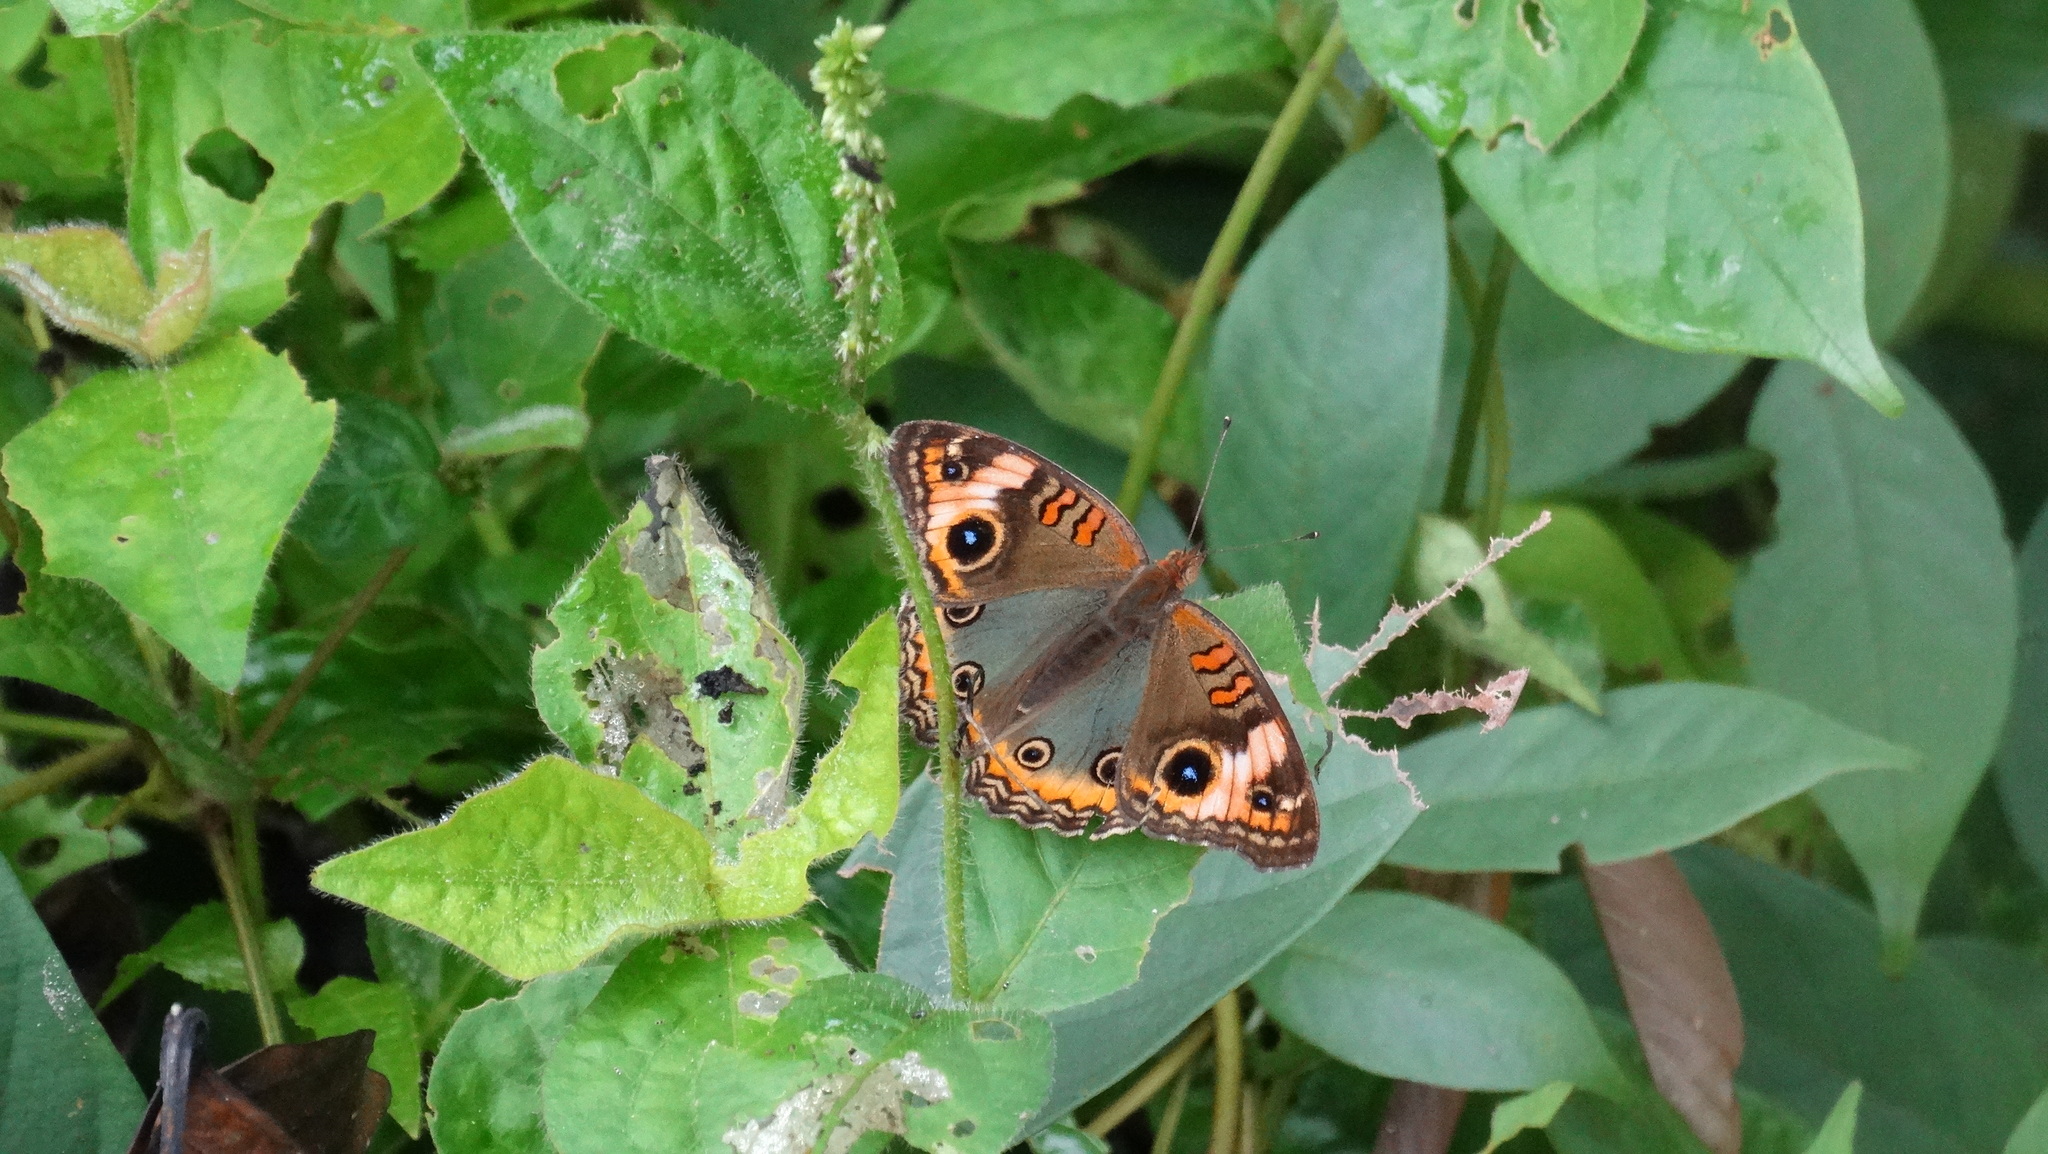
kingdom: Animalia
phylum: Arthropoda
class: Insecta
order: Lepidoptera
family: Nymphalidae
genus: Junonia
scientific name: Junonia evarete
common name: Black mangrove buckeye
